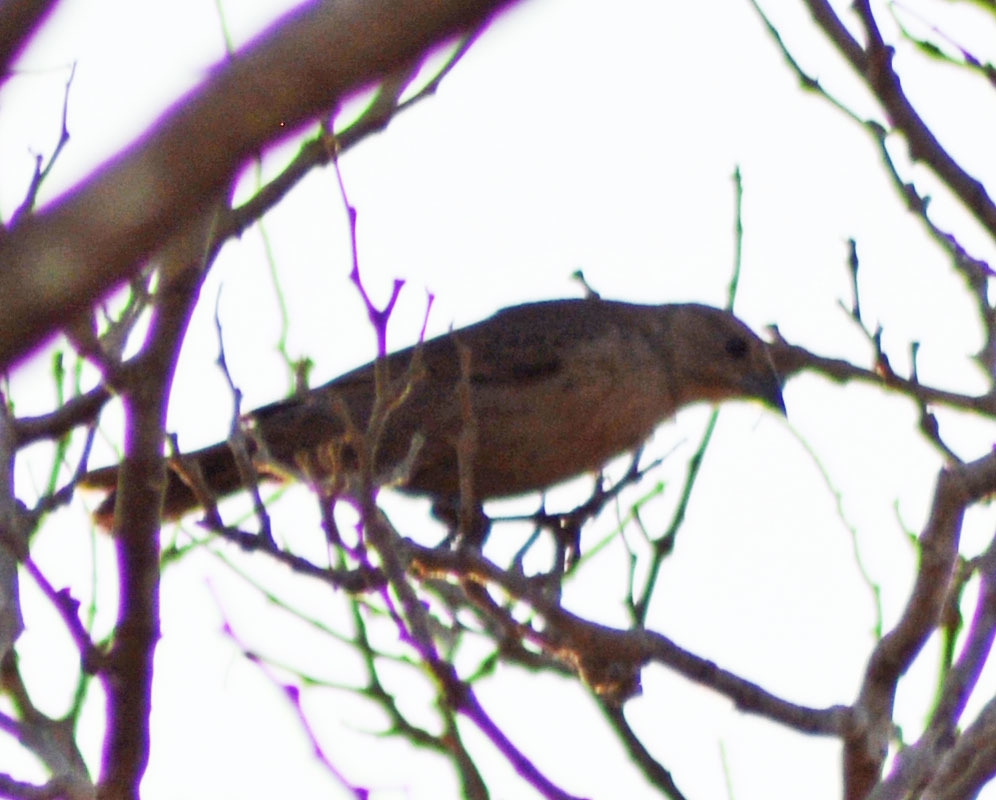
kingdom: Animalia
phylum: Chordata
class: Aves
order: Passeriformes
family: Icteridae
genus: Molothrus
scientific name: Molothrus ater
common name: Brown-headed cowbird
